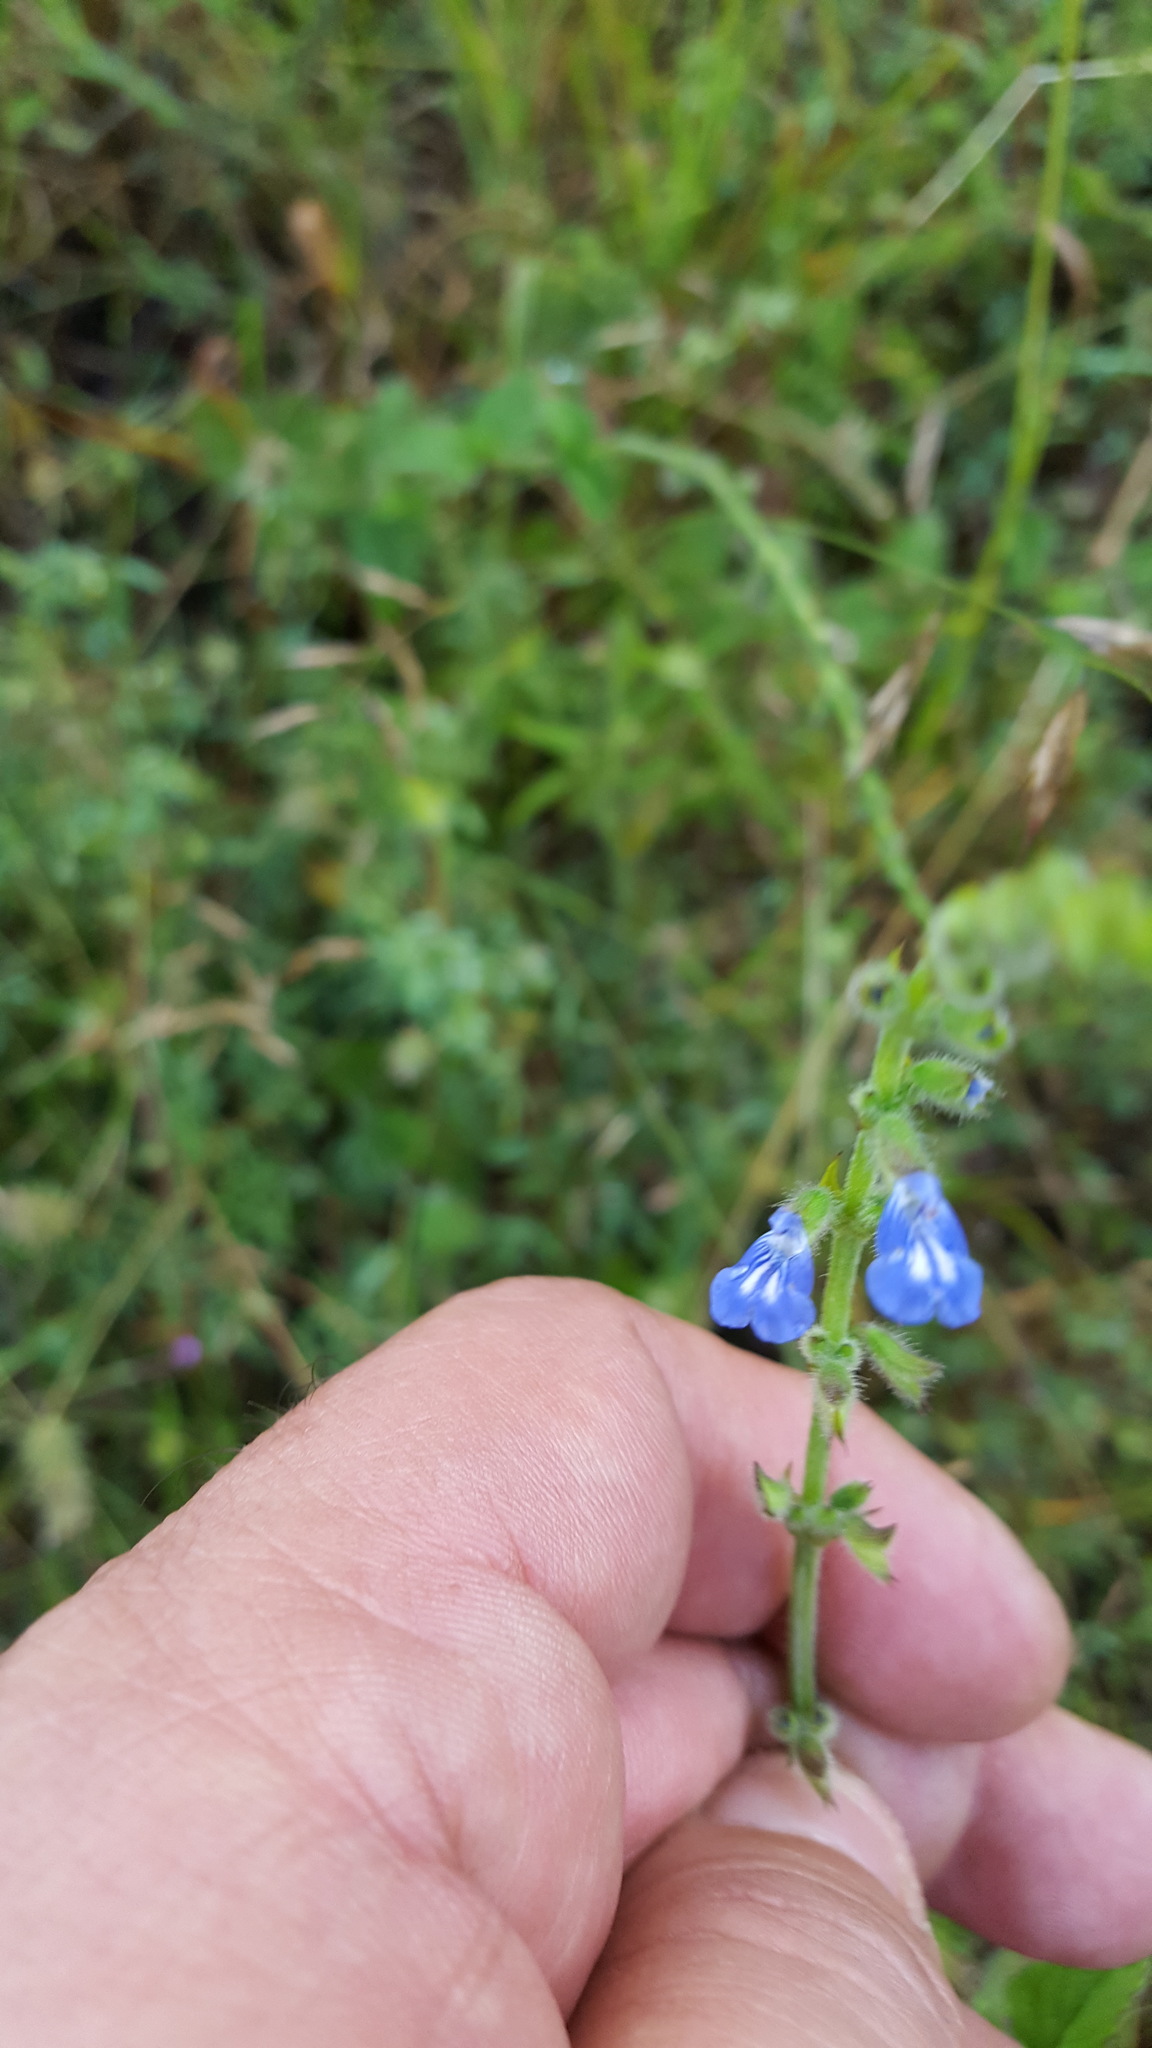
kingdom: Plantae
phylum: Tracheophyta
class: Magnoliopsida
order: Lamiales
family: Lamiaceae
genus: Salvia
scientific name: Salvia misella
